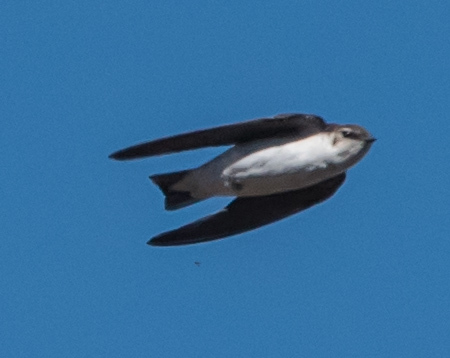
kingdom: Animalia
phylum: Chordata
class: Aves
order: Passeriformes
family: Hirundinidae
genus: Tachycineta
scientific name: Tachycineta thalassina
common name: Violet-green swallow
